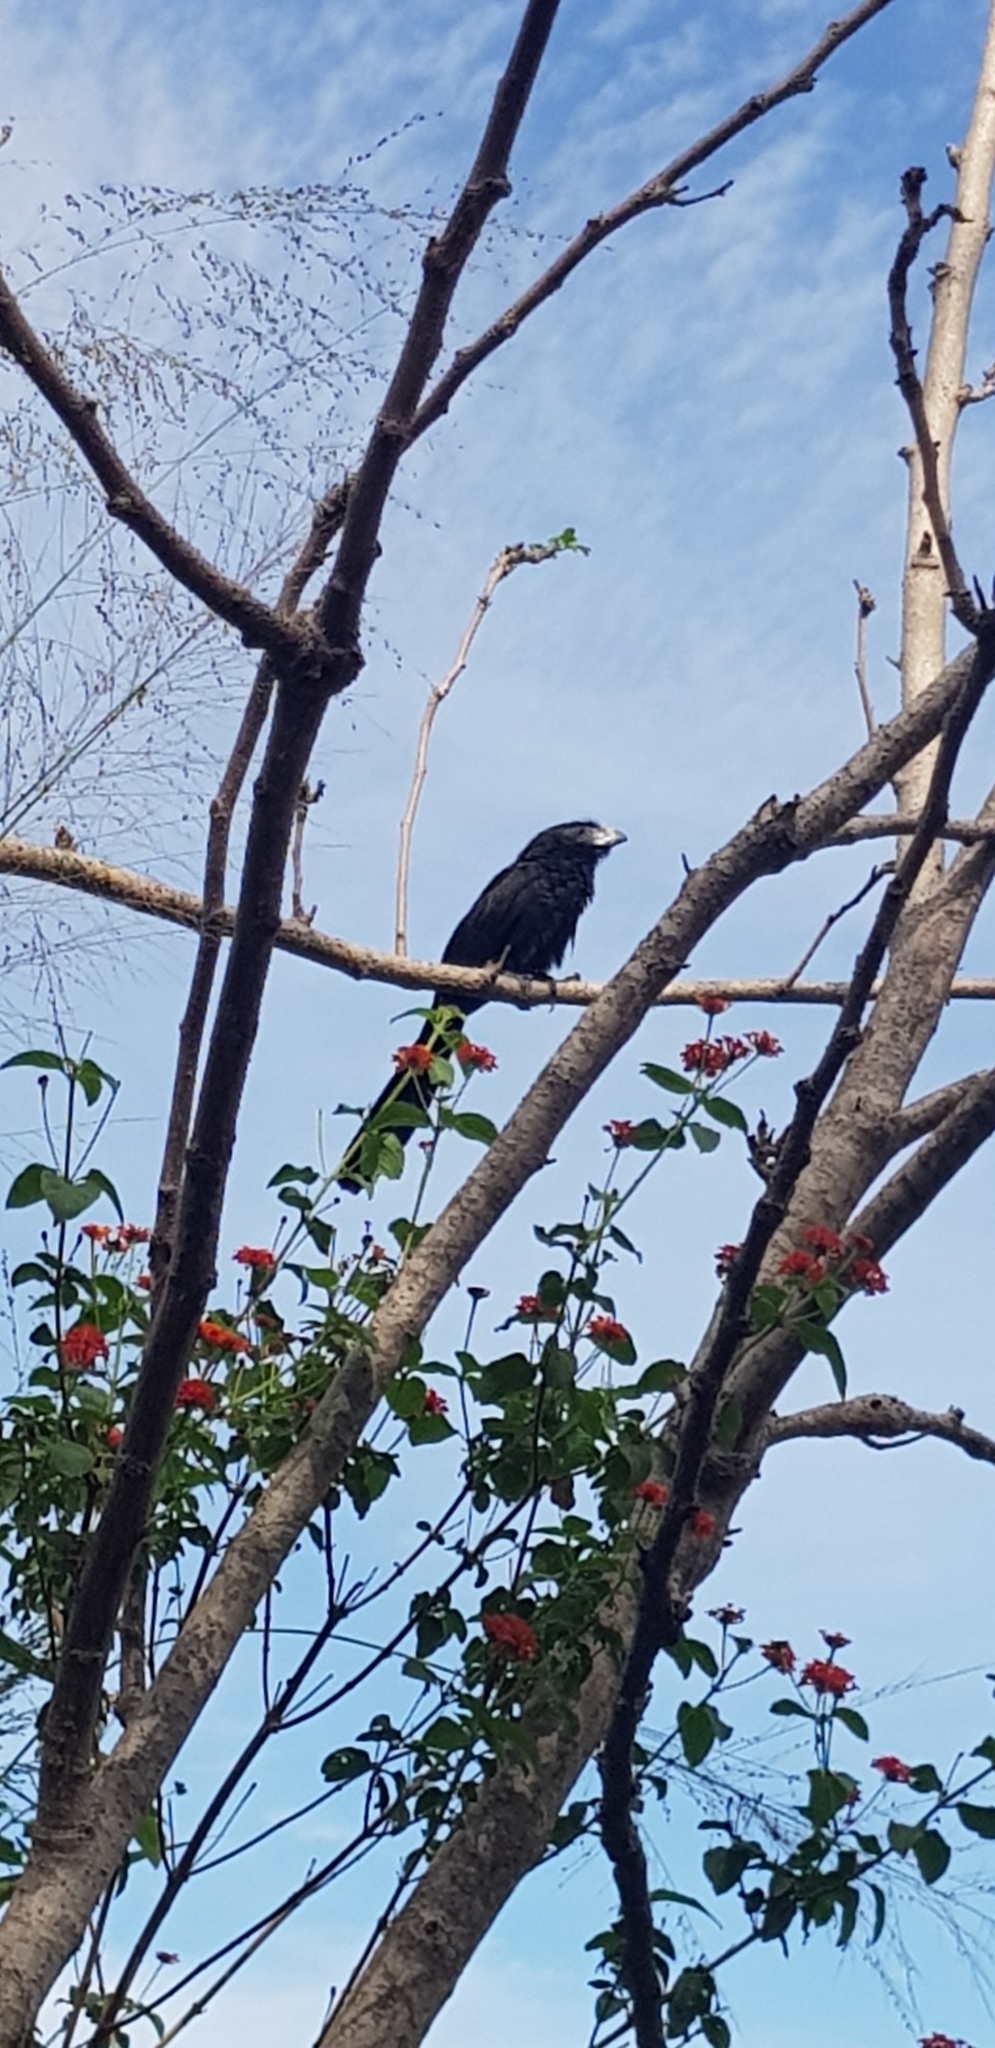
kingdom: Animalia
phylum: Chordata
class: Aves
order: Cuculiformes
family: Cuculidae
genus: Crotophaga
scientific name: Crotophaga sulcirostris
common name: Groove-billed ani
